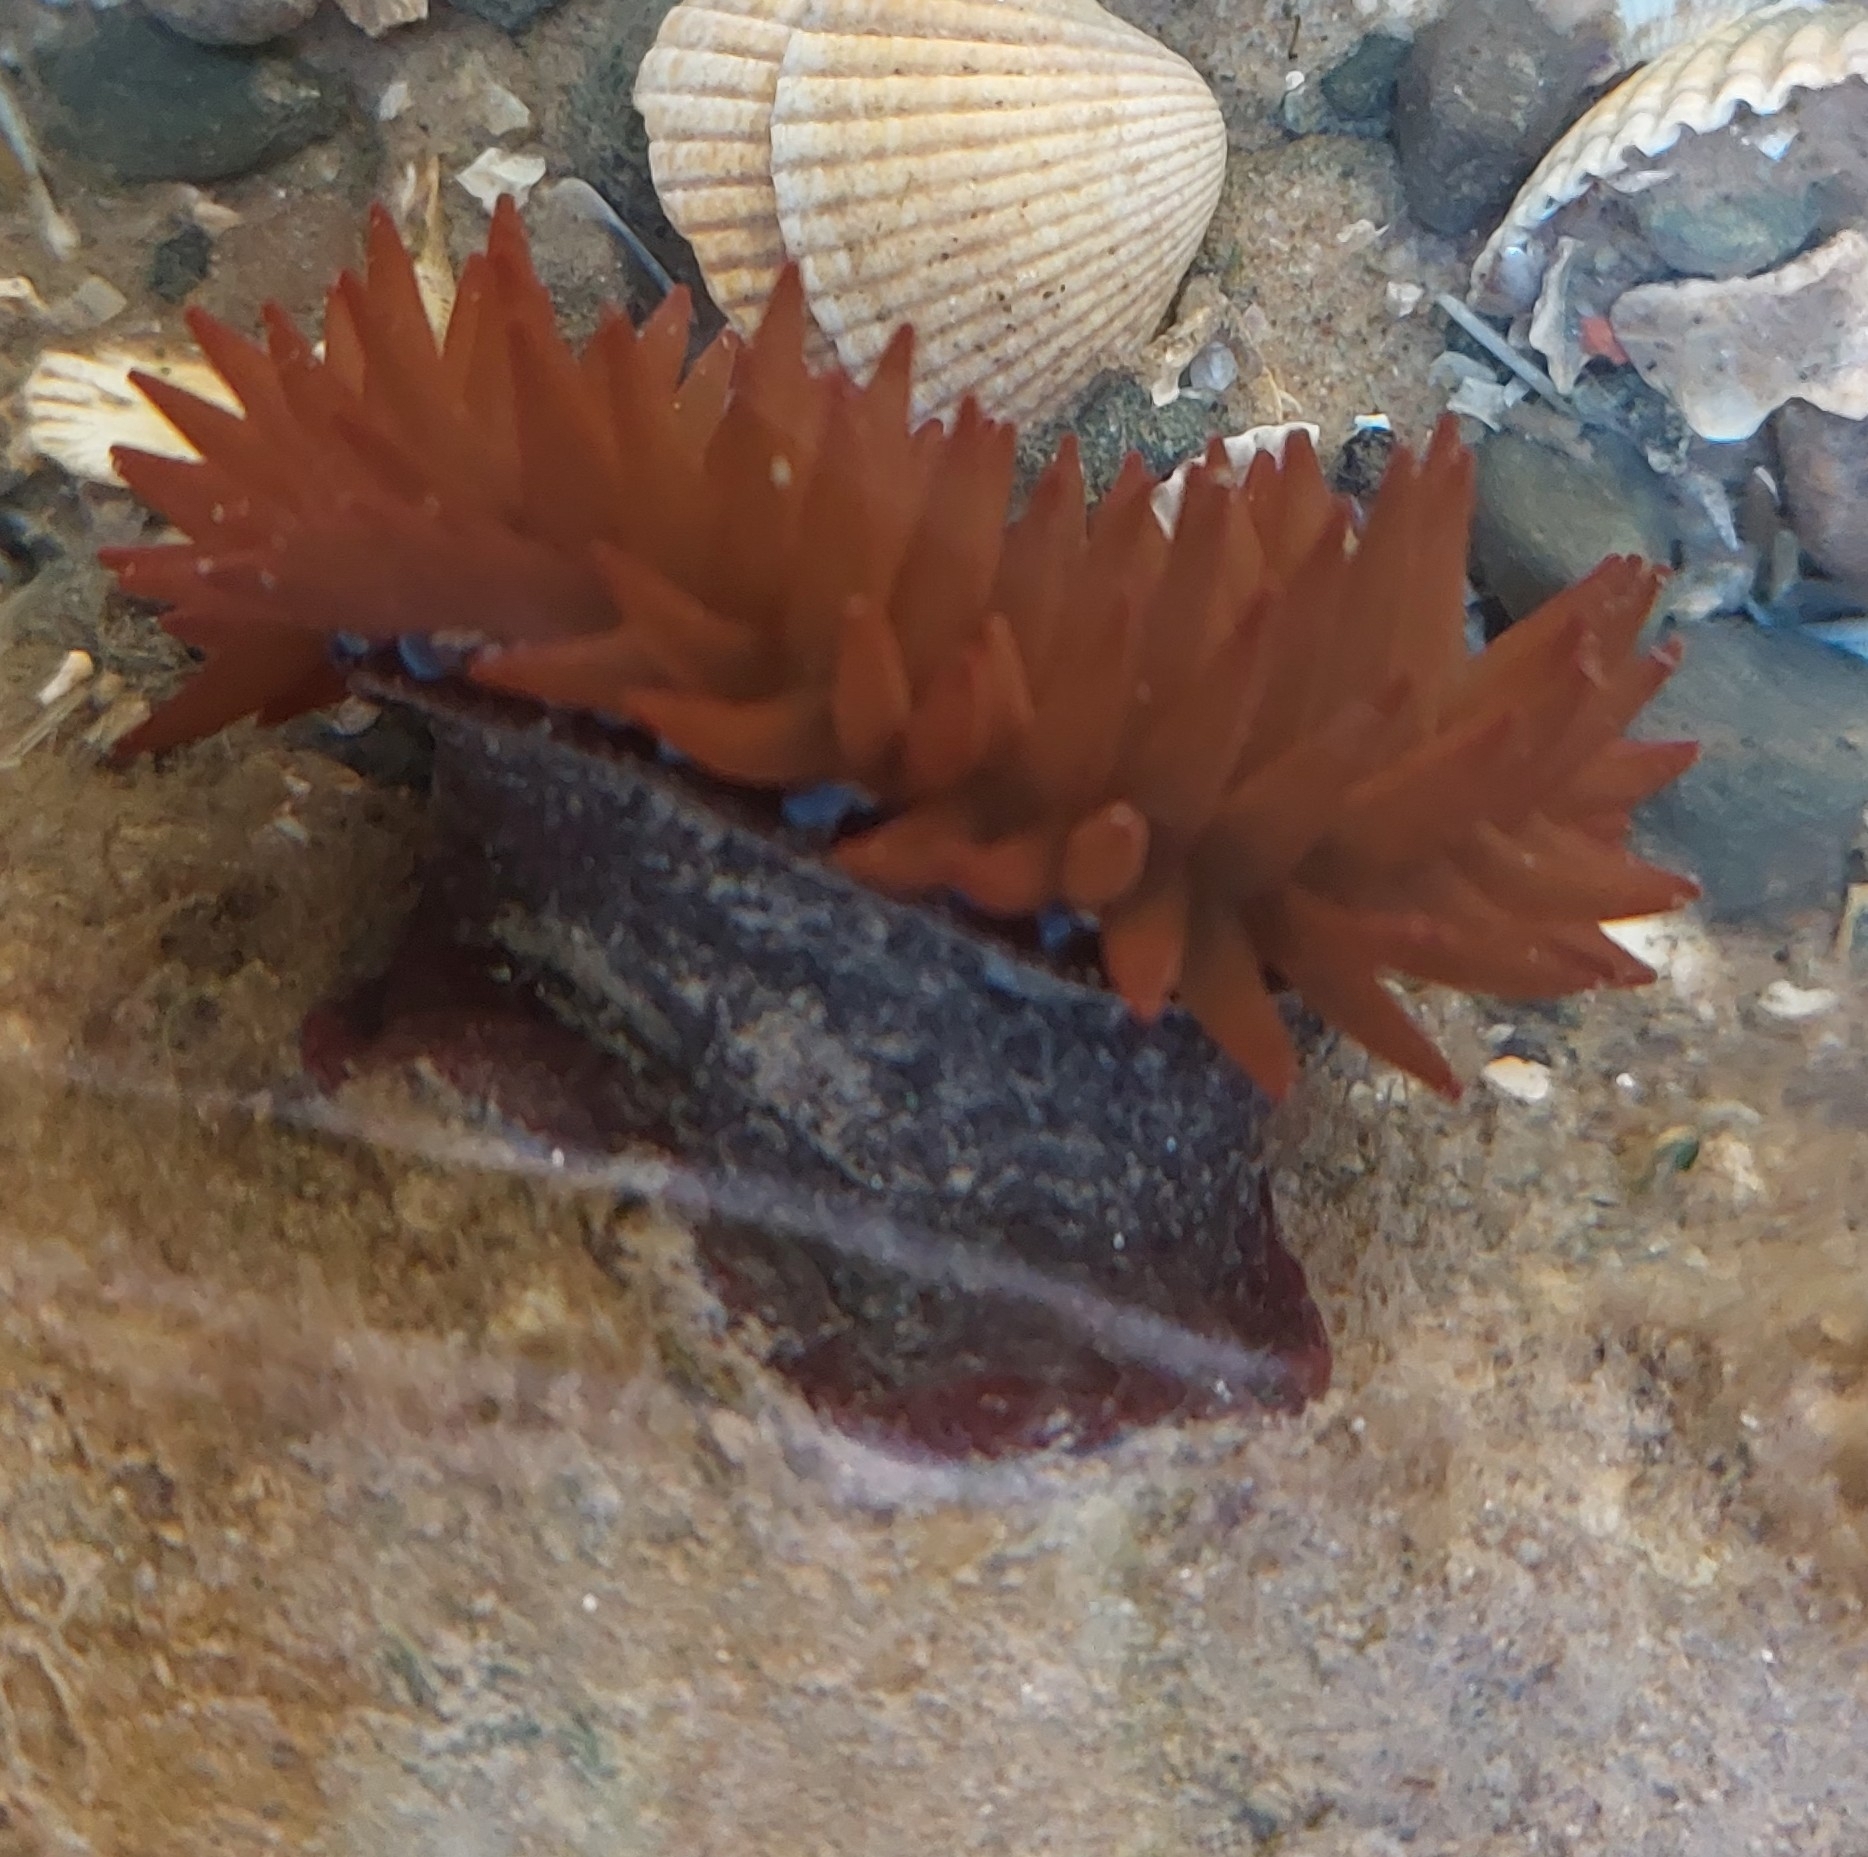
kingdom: Animalia
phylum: Cnidaria
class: Anthozoa
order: Actiniaria
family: Actiniidae
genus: Actinia
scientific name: Actinia equina
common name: Beadlet anemone
